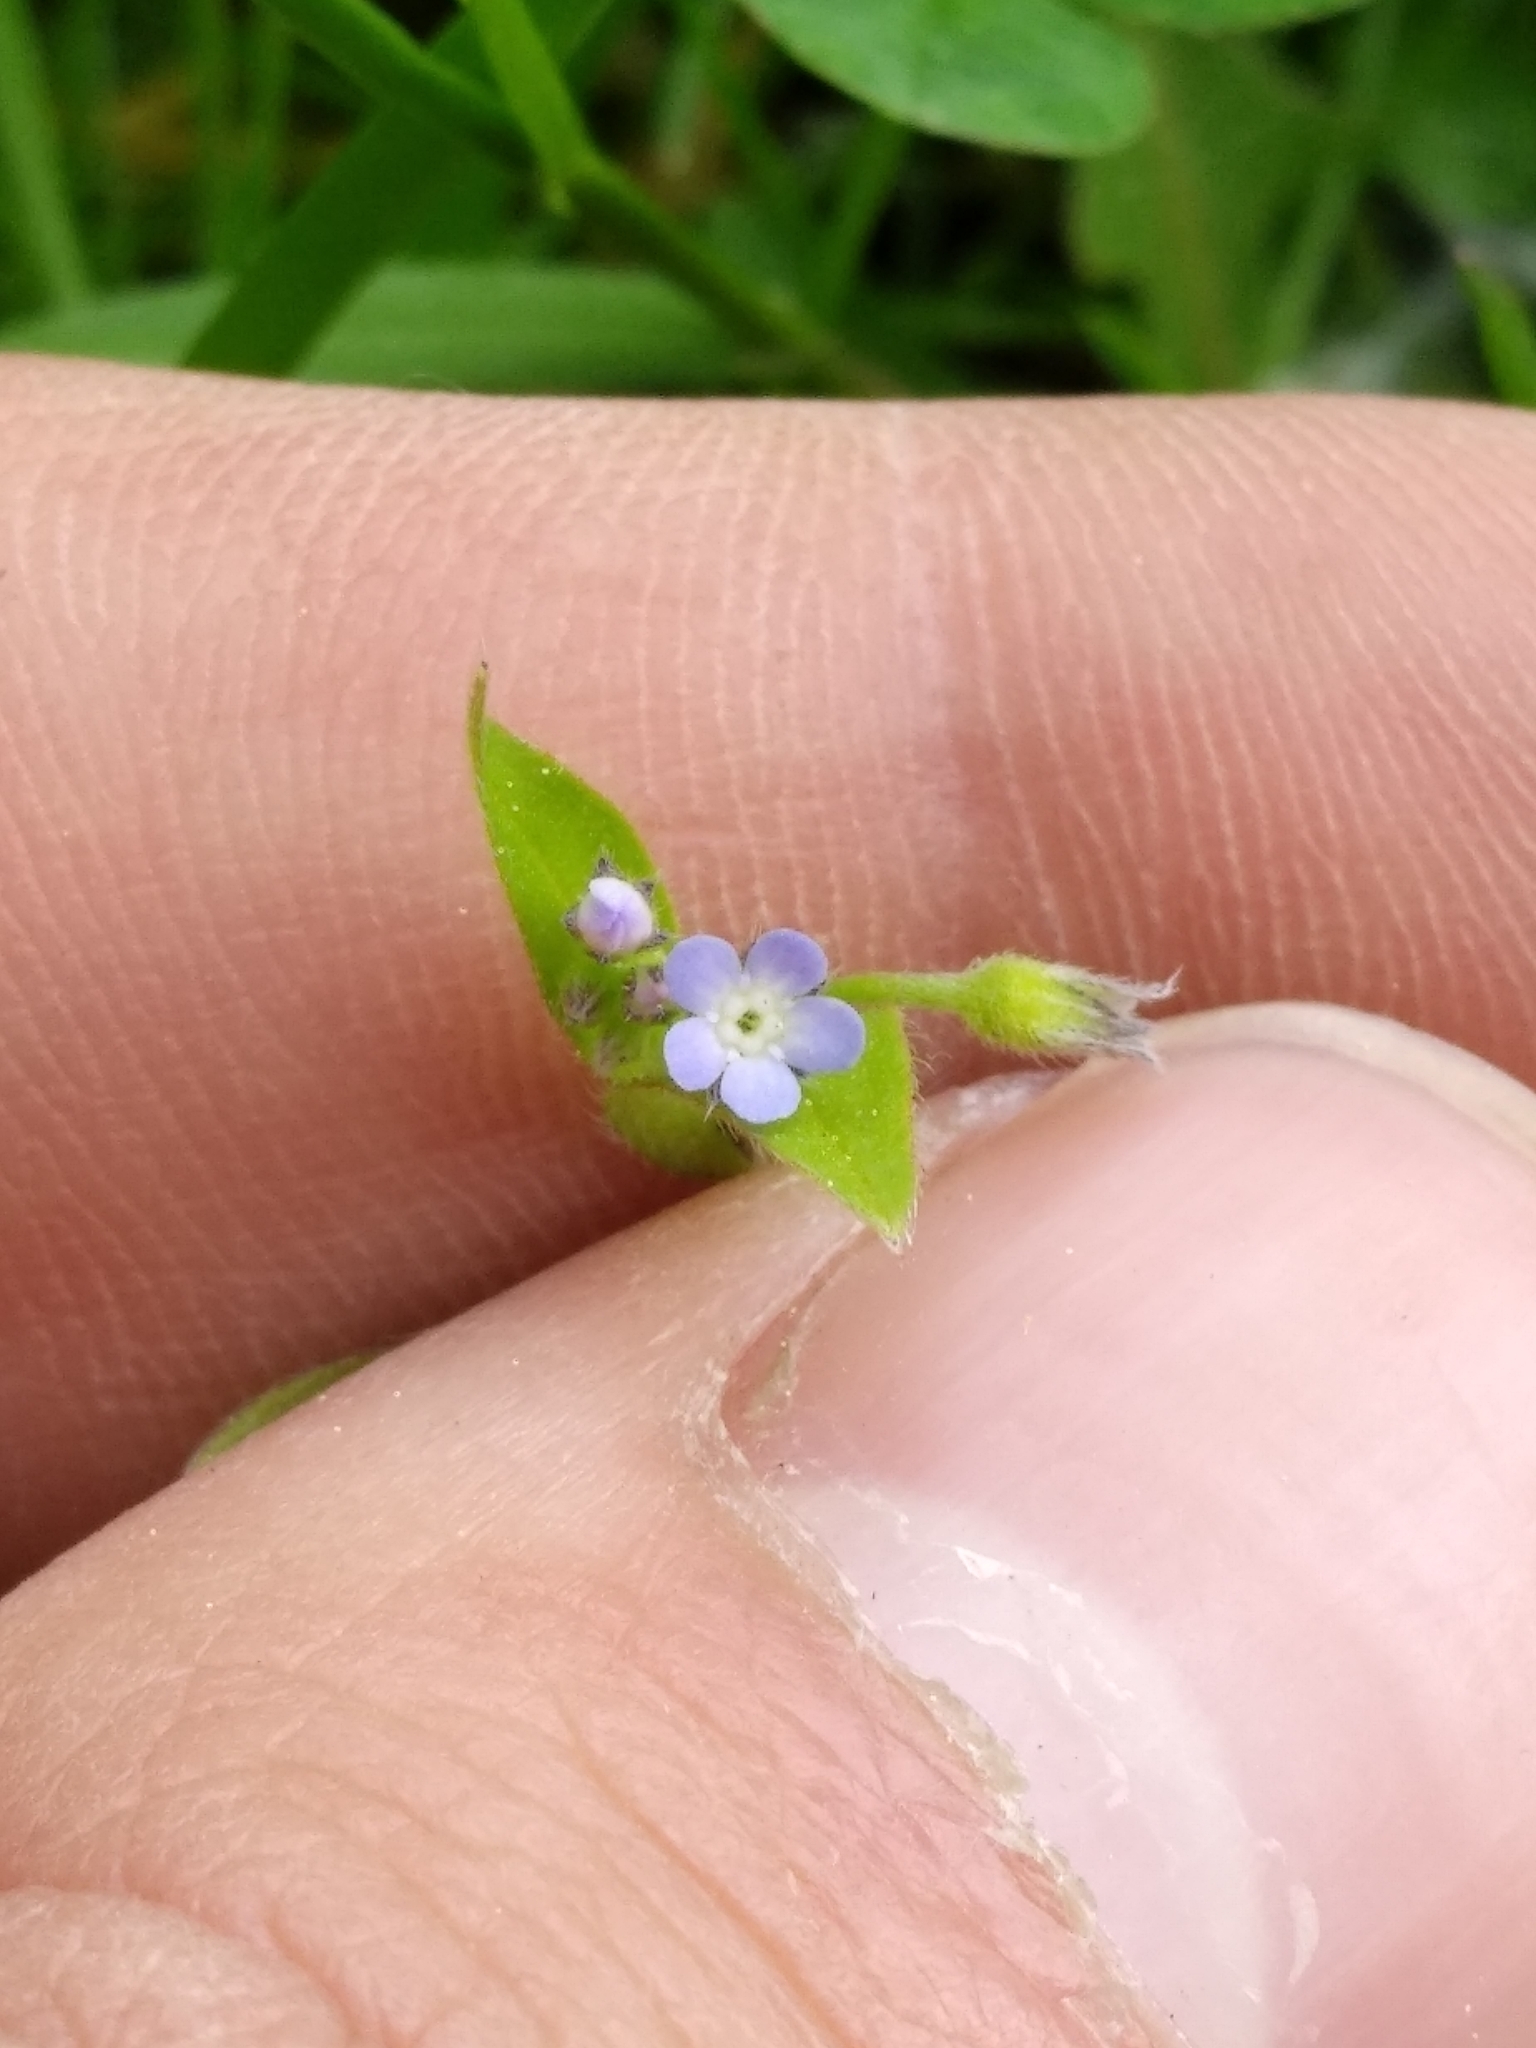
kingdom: Plantae
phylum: Tracheophyta
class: Magnoliopsida
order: Boraginales
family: Boraginaceae
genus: Myosotis
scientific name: Myosotis sparsiflora
